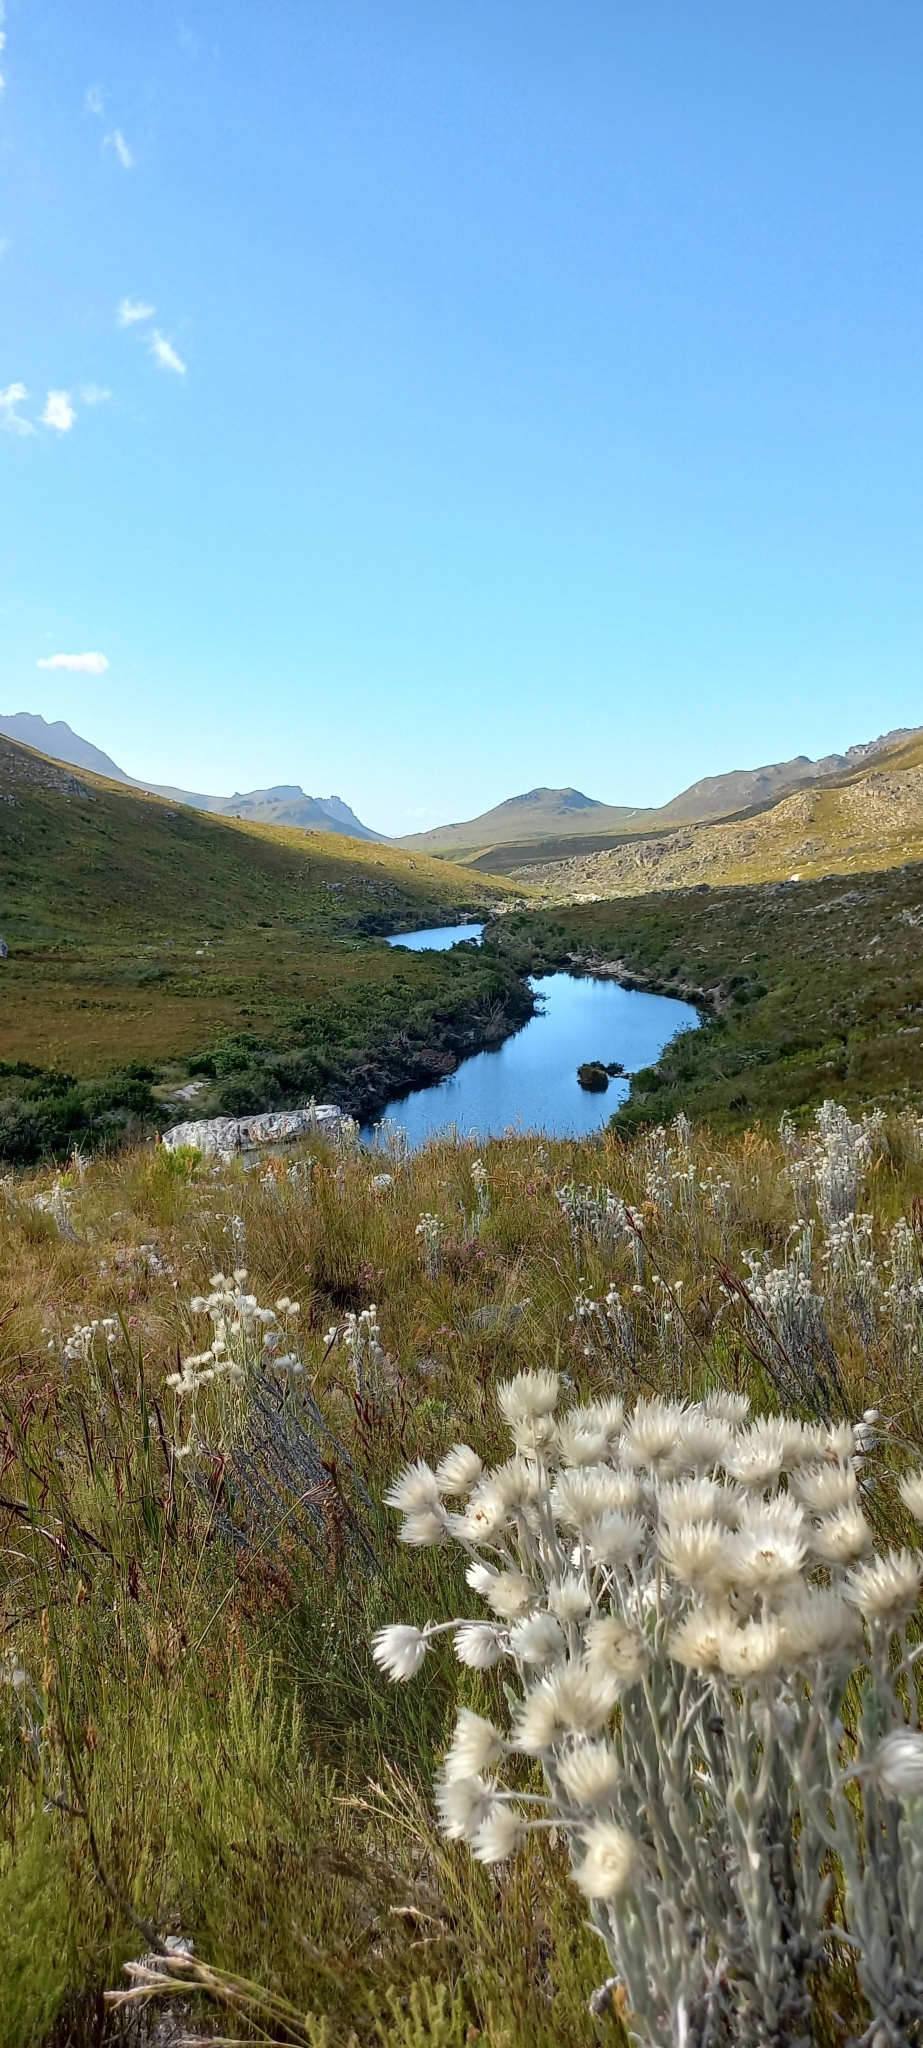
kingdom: Plantae
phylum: Tracheophyta
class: Magnoliopsida
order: Asterales
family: Asteraceae
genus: Syncarpha
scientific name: Syncarpha vestita
